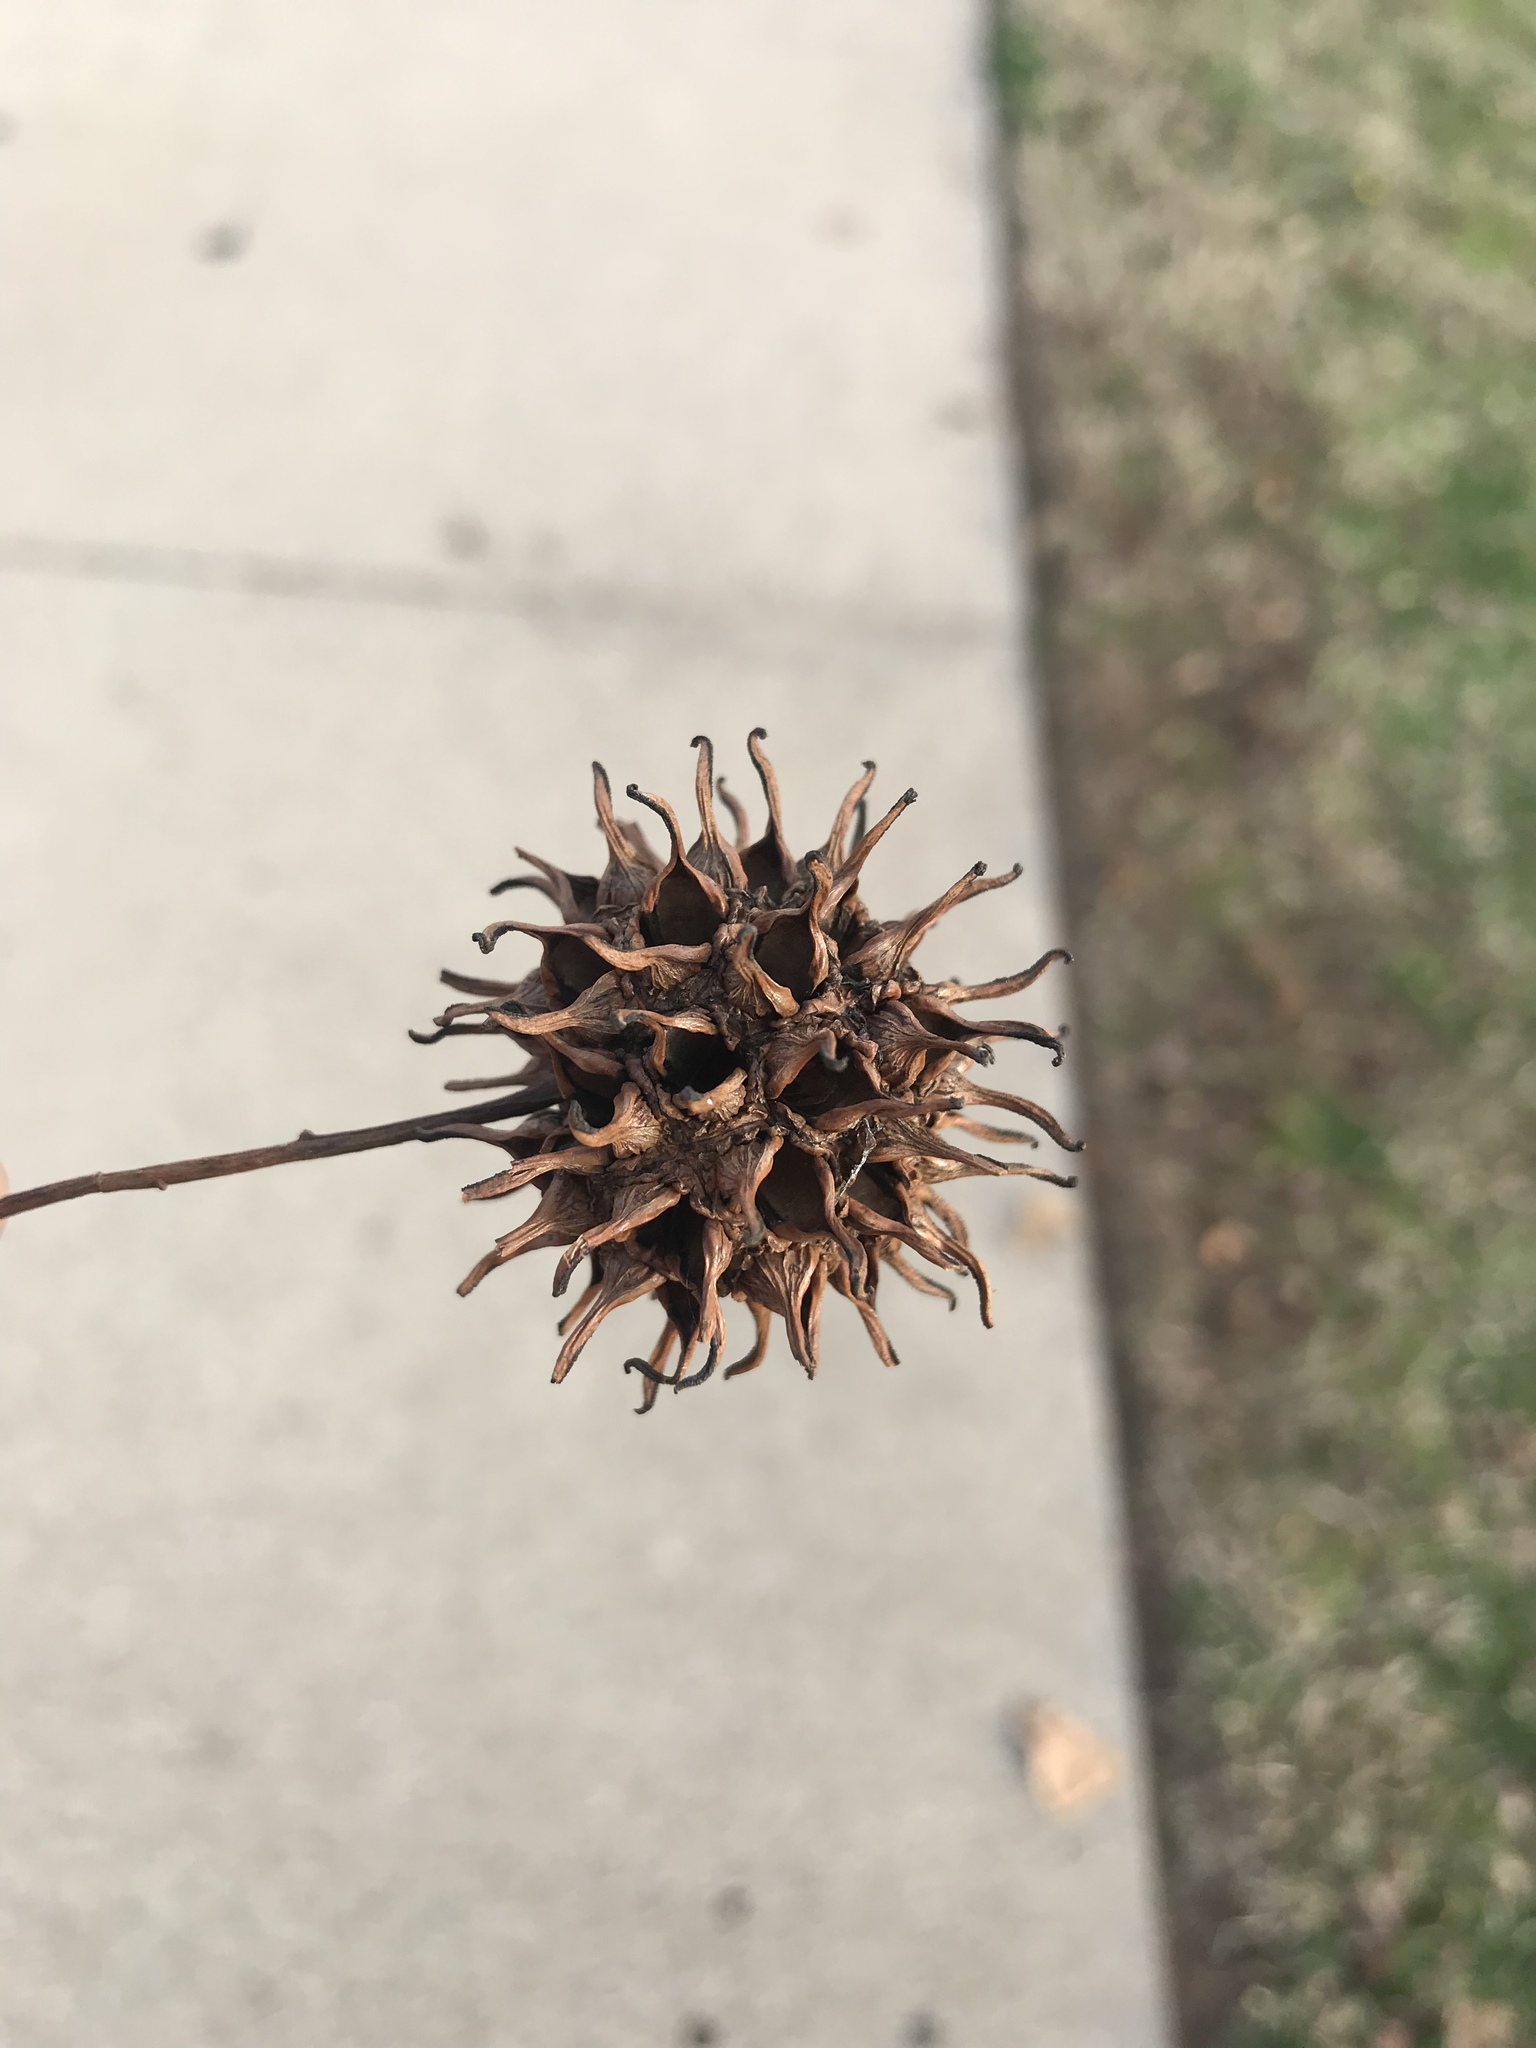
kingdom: Plantae
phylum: Tracheophyta
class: Magnoliopsida
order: Saxifragales
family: Altingiaceae
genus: Liquidambar
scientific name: Liquidambar styraciflua
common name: Sweet gum
